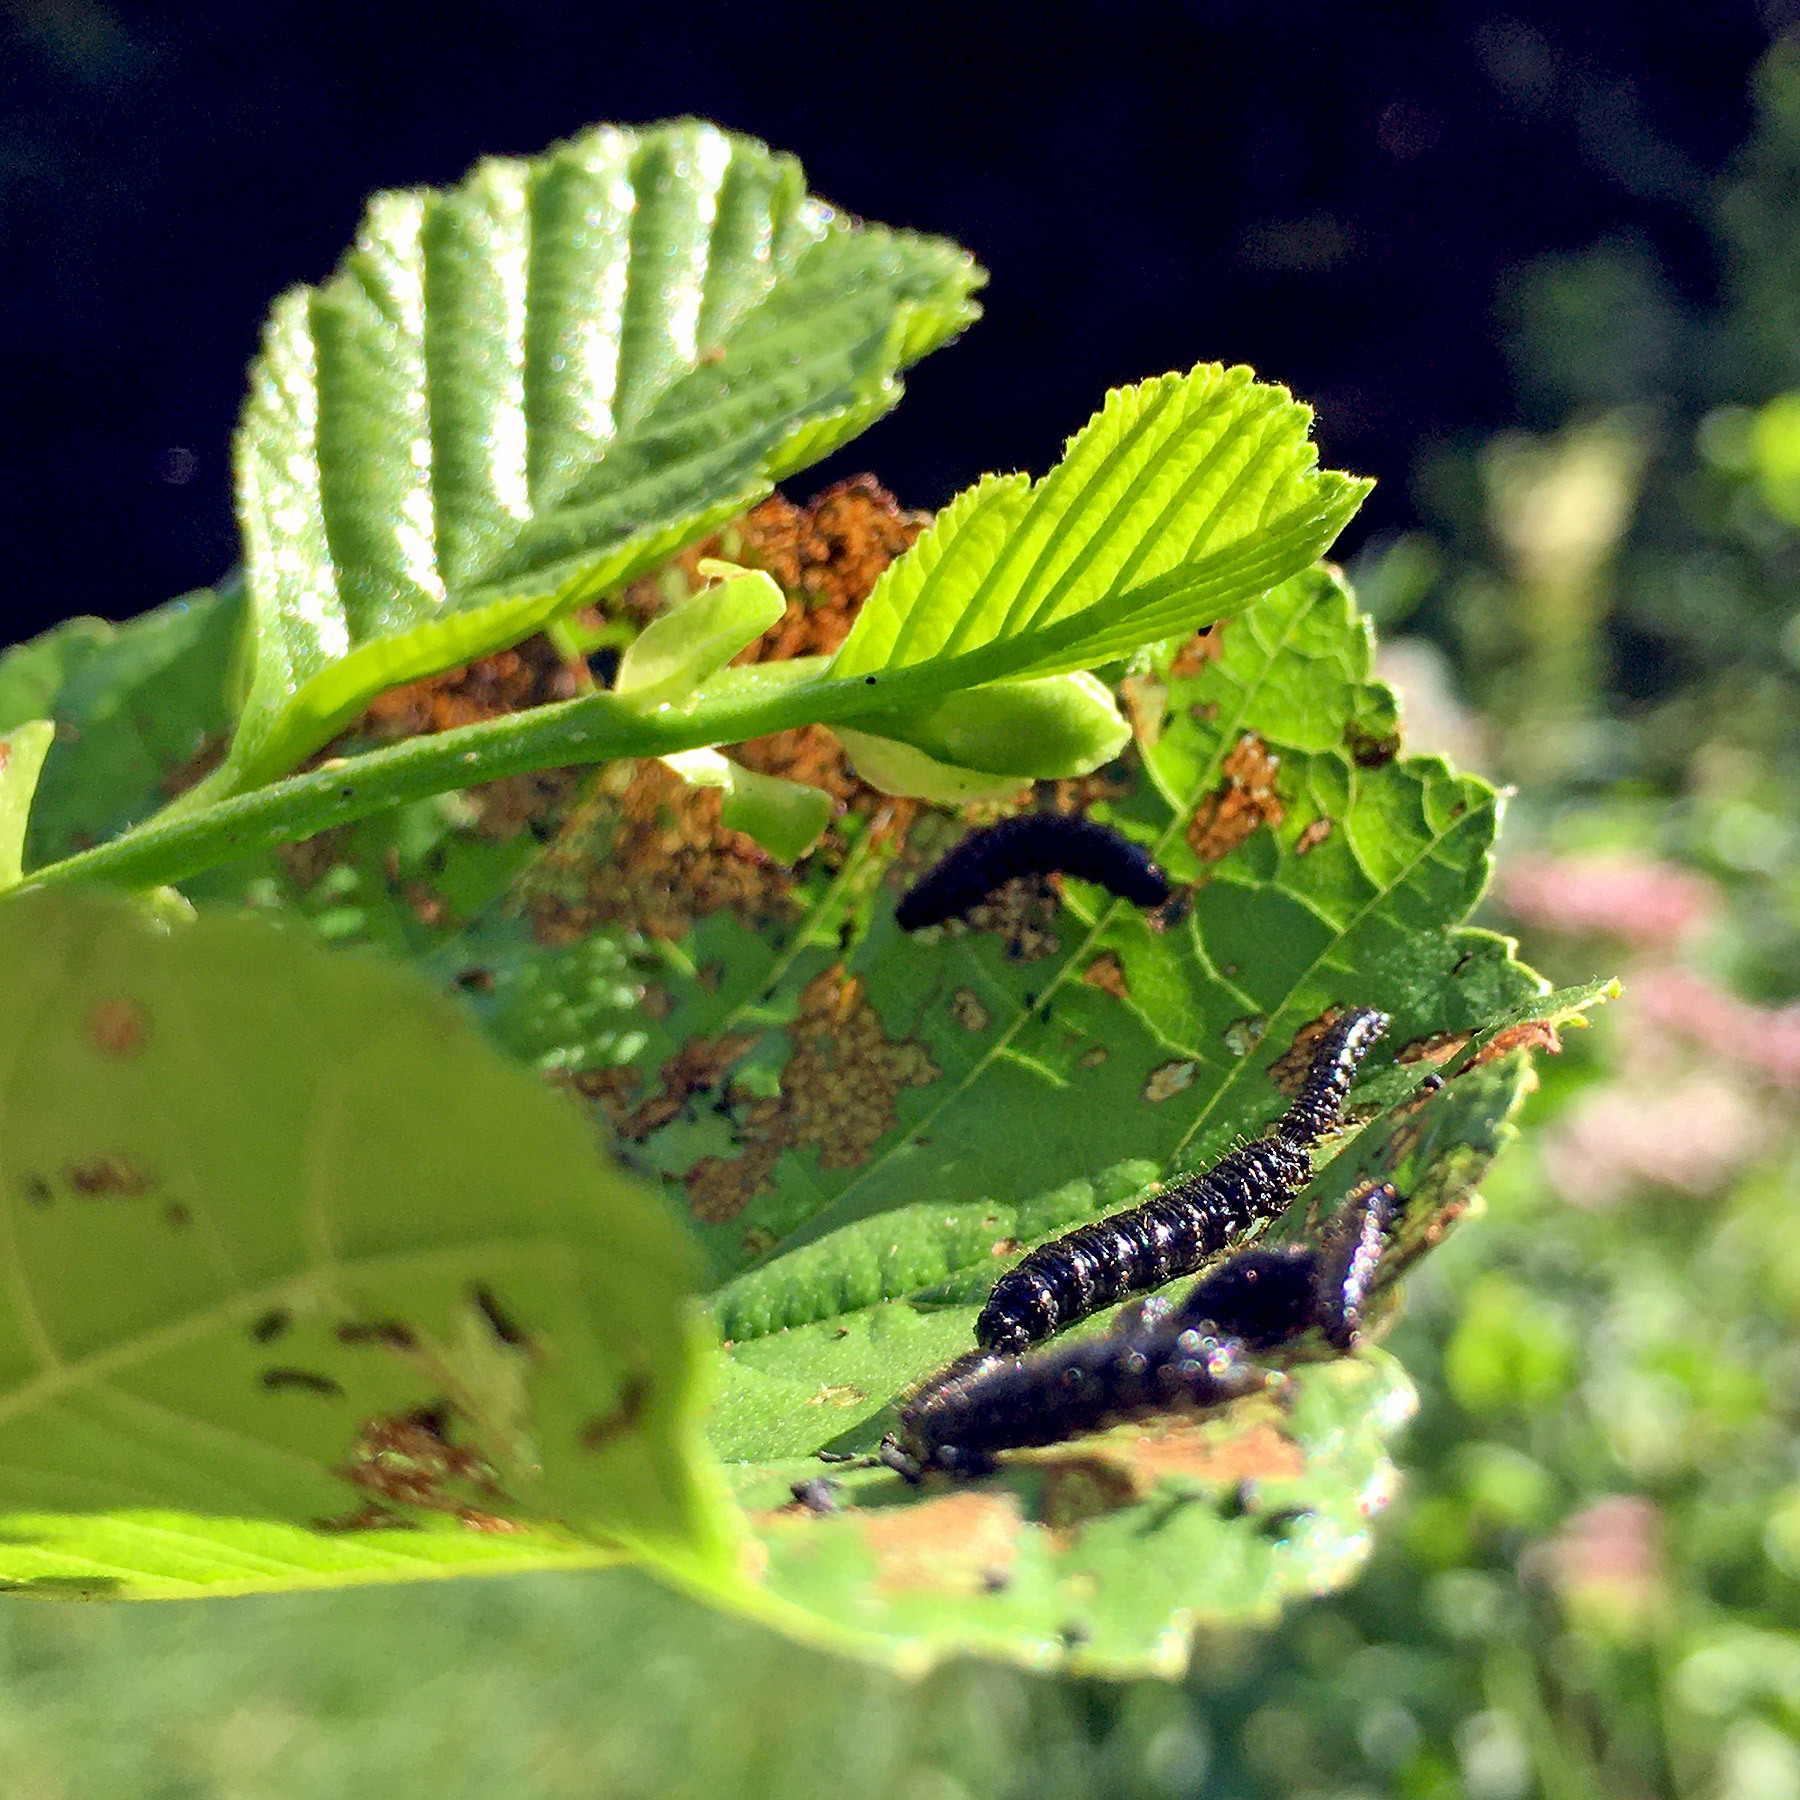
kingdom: Animalia
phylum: Arthropoda
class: Insecta
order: Coleoptera
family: Chrysomelidae
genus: Agelastica
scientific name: Agelastica alni
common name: Alder leaf beetle
